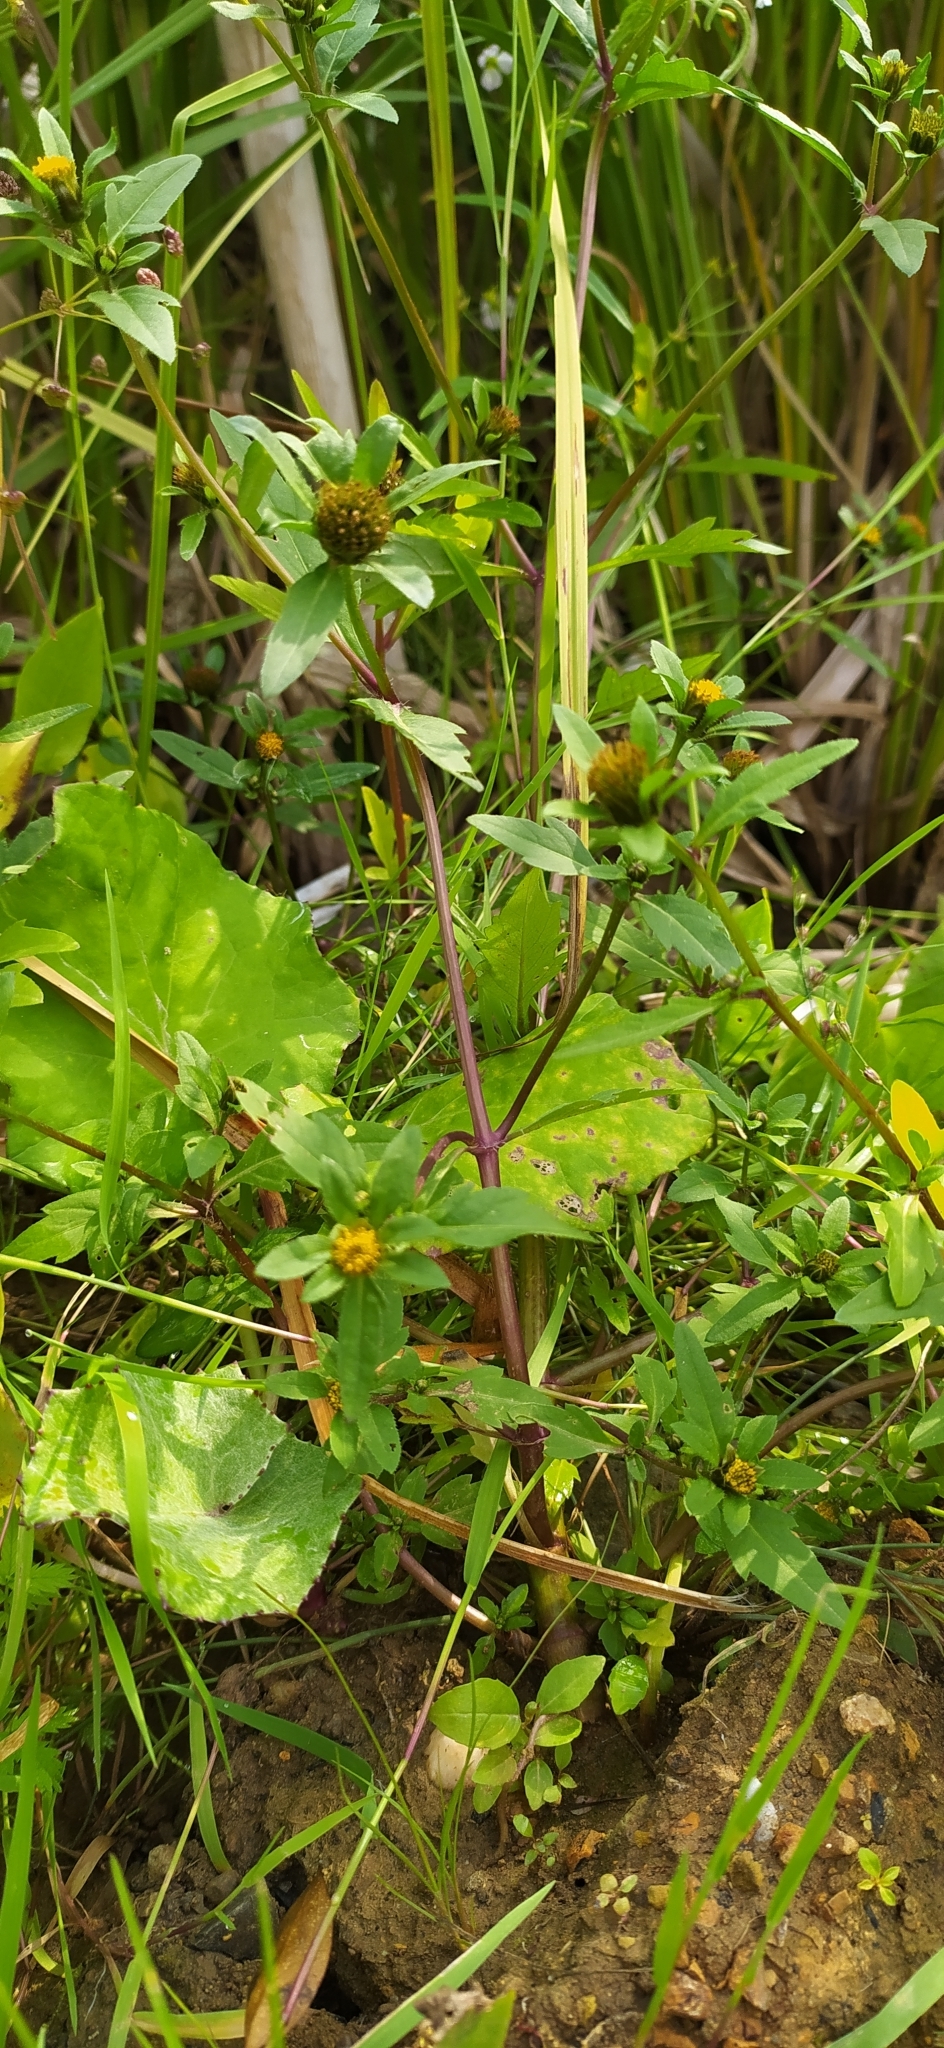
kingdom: Plantae
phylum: Tracheophyta
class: Magnoliopsida
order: Asterales
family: Asteraceae
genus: Bidens
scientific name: Bidens tripartita
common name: Trifid bur-marigold
